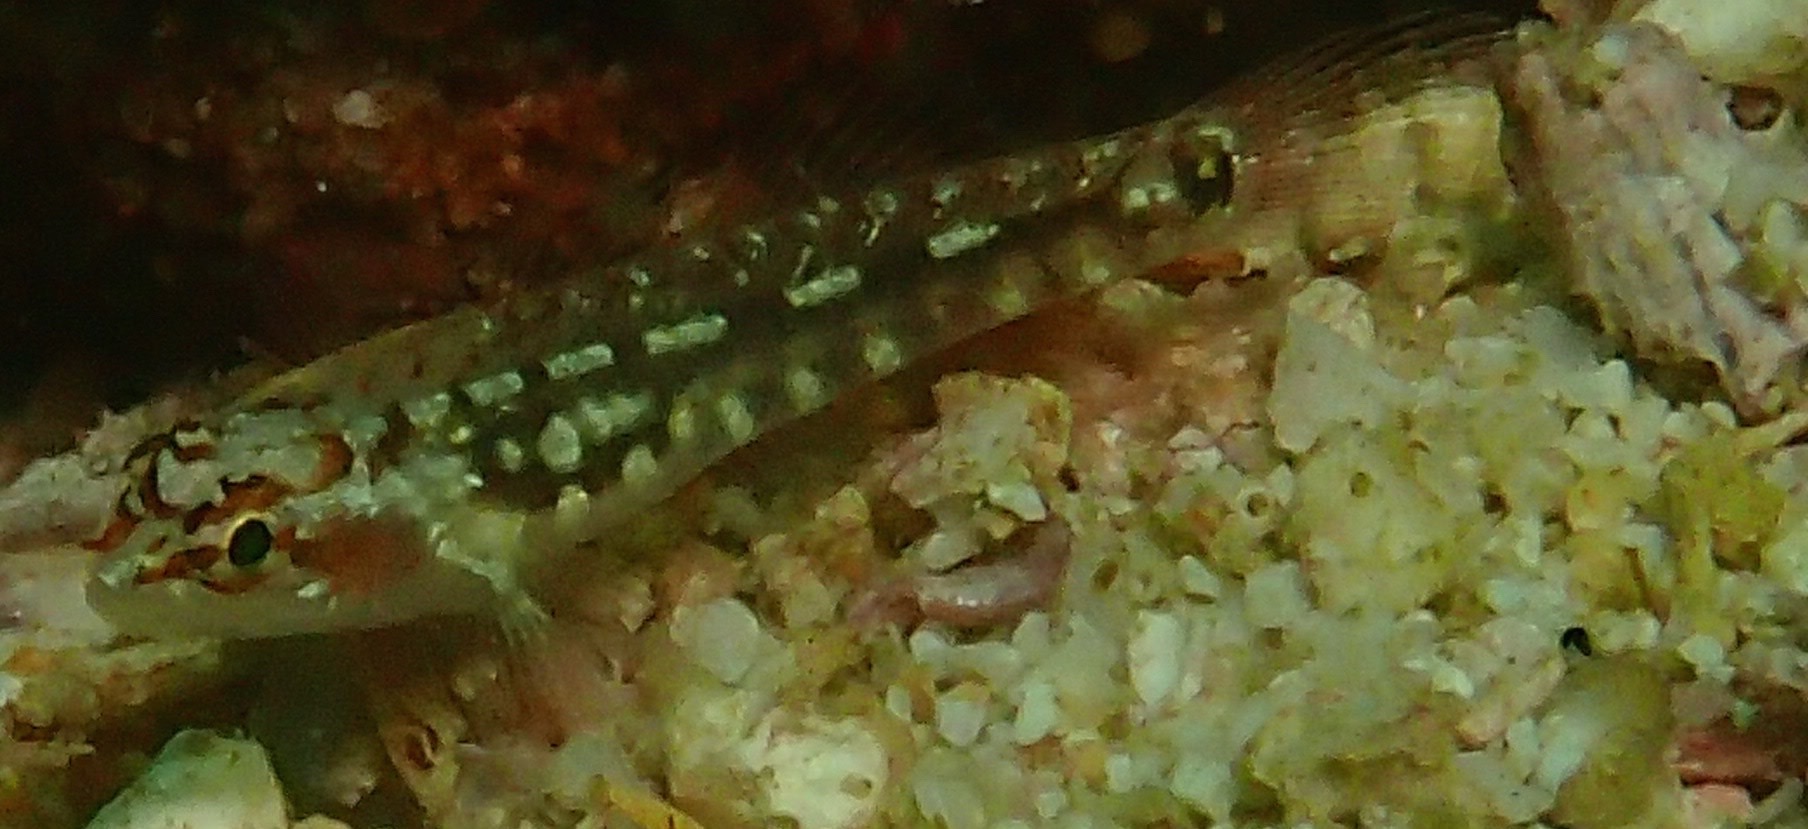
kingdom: Animalia
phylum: Chordata
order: Perciformes
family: Gobiidae
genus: Eviota
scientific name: Eviota longirostris
